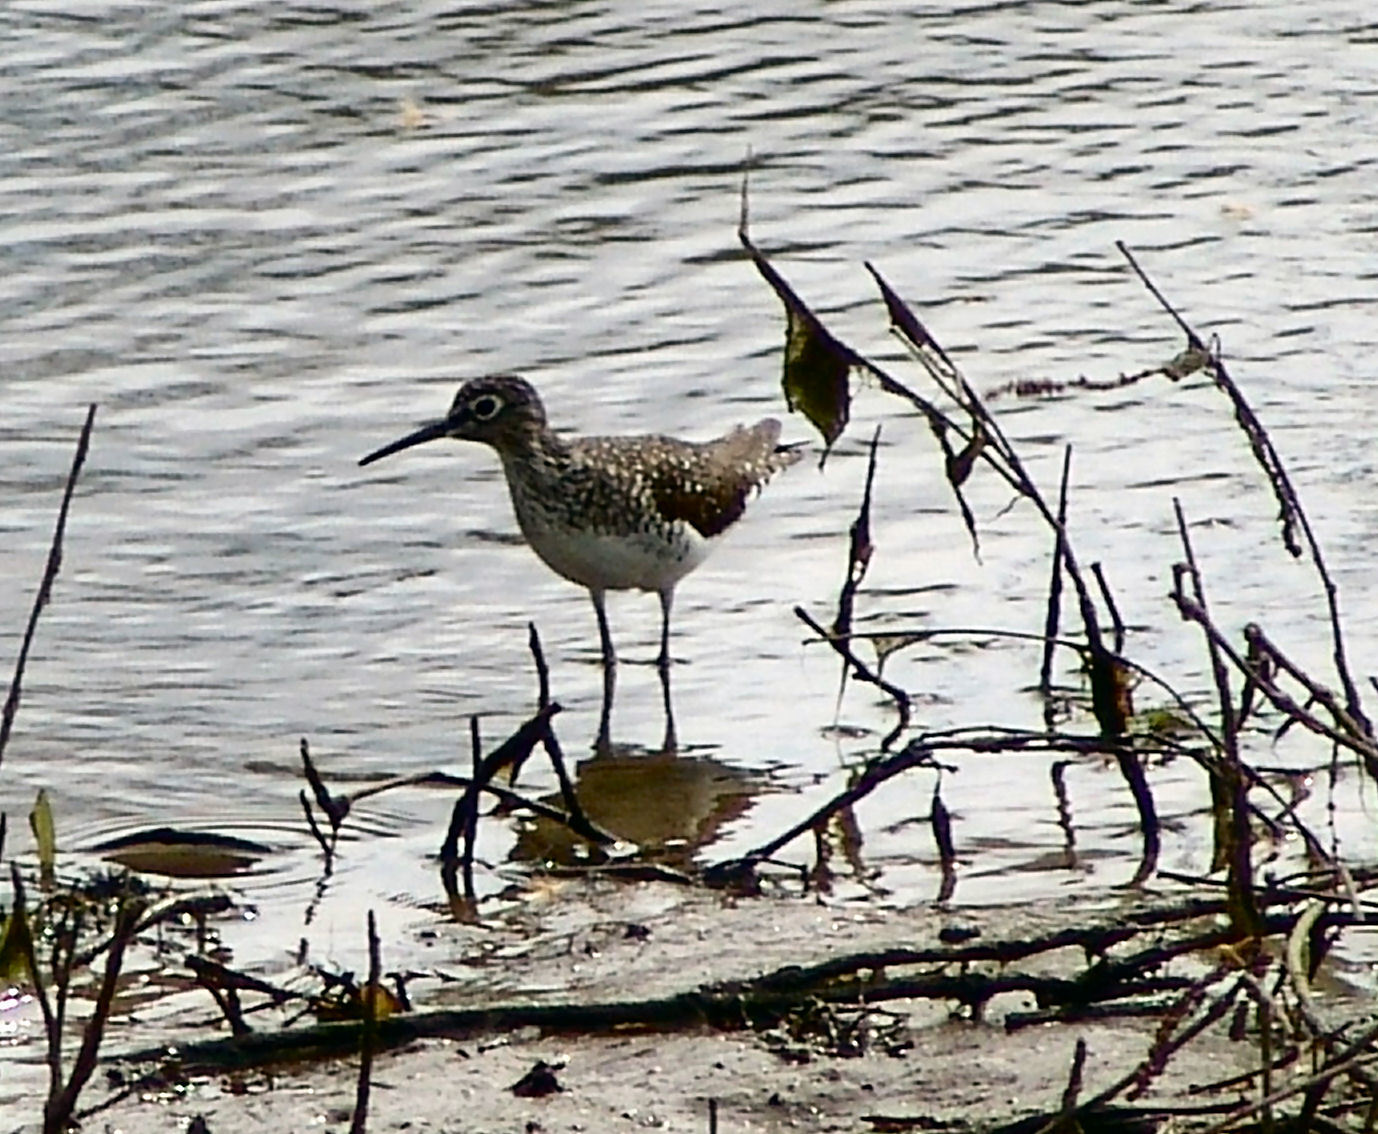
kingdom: Animalia
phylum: Chordata
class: Aves
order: Charadriiformes
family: Scolopacidae
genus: Tringa
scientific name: Tringa solitaria
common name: Solitary sandpiper
